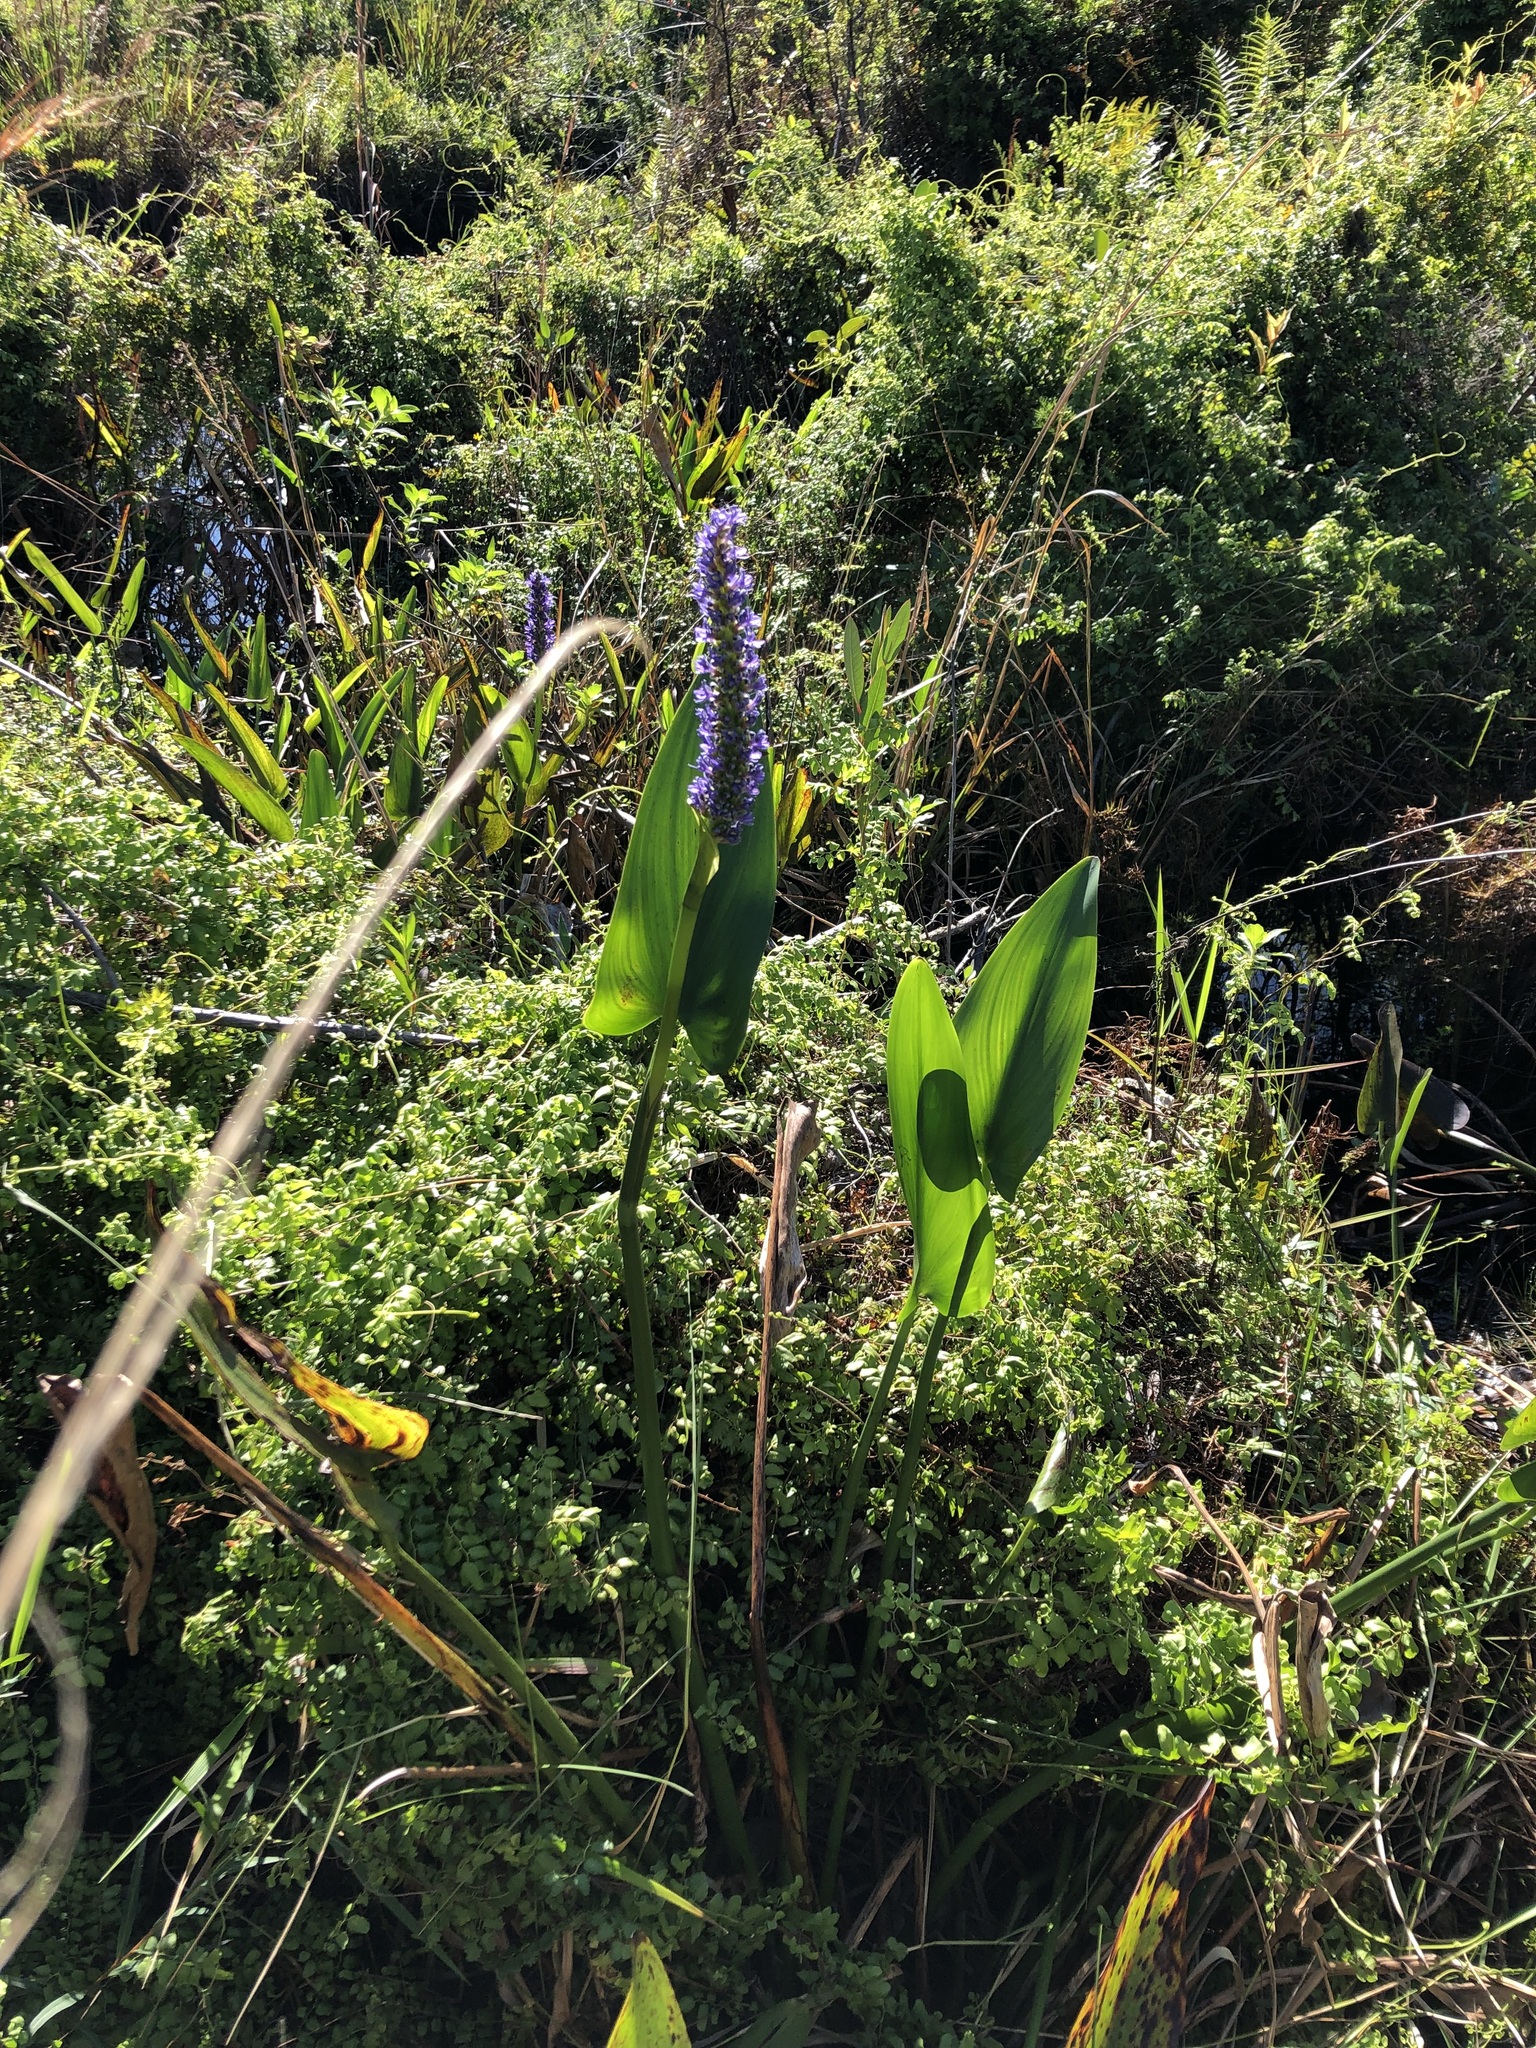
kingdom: Plantae
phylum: Tracheophyta
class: Liliopsida
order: Commelinales
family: Pontederiaceae
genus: Pontederia
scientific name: Pontederia cordata
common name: Pickerelweed
